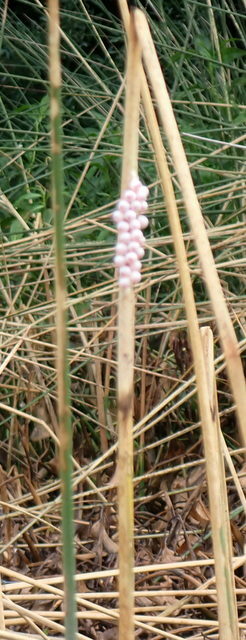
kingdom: Animalia
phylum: Mollusca
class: Gastropoda
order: Architaenioglossa
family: Ampullariidae
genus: Pomacea
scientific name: Pomacea paludosa
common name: Florida applesnail
